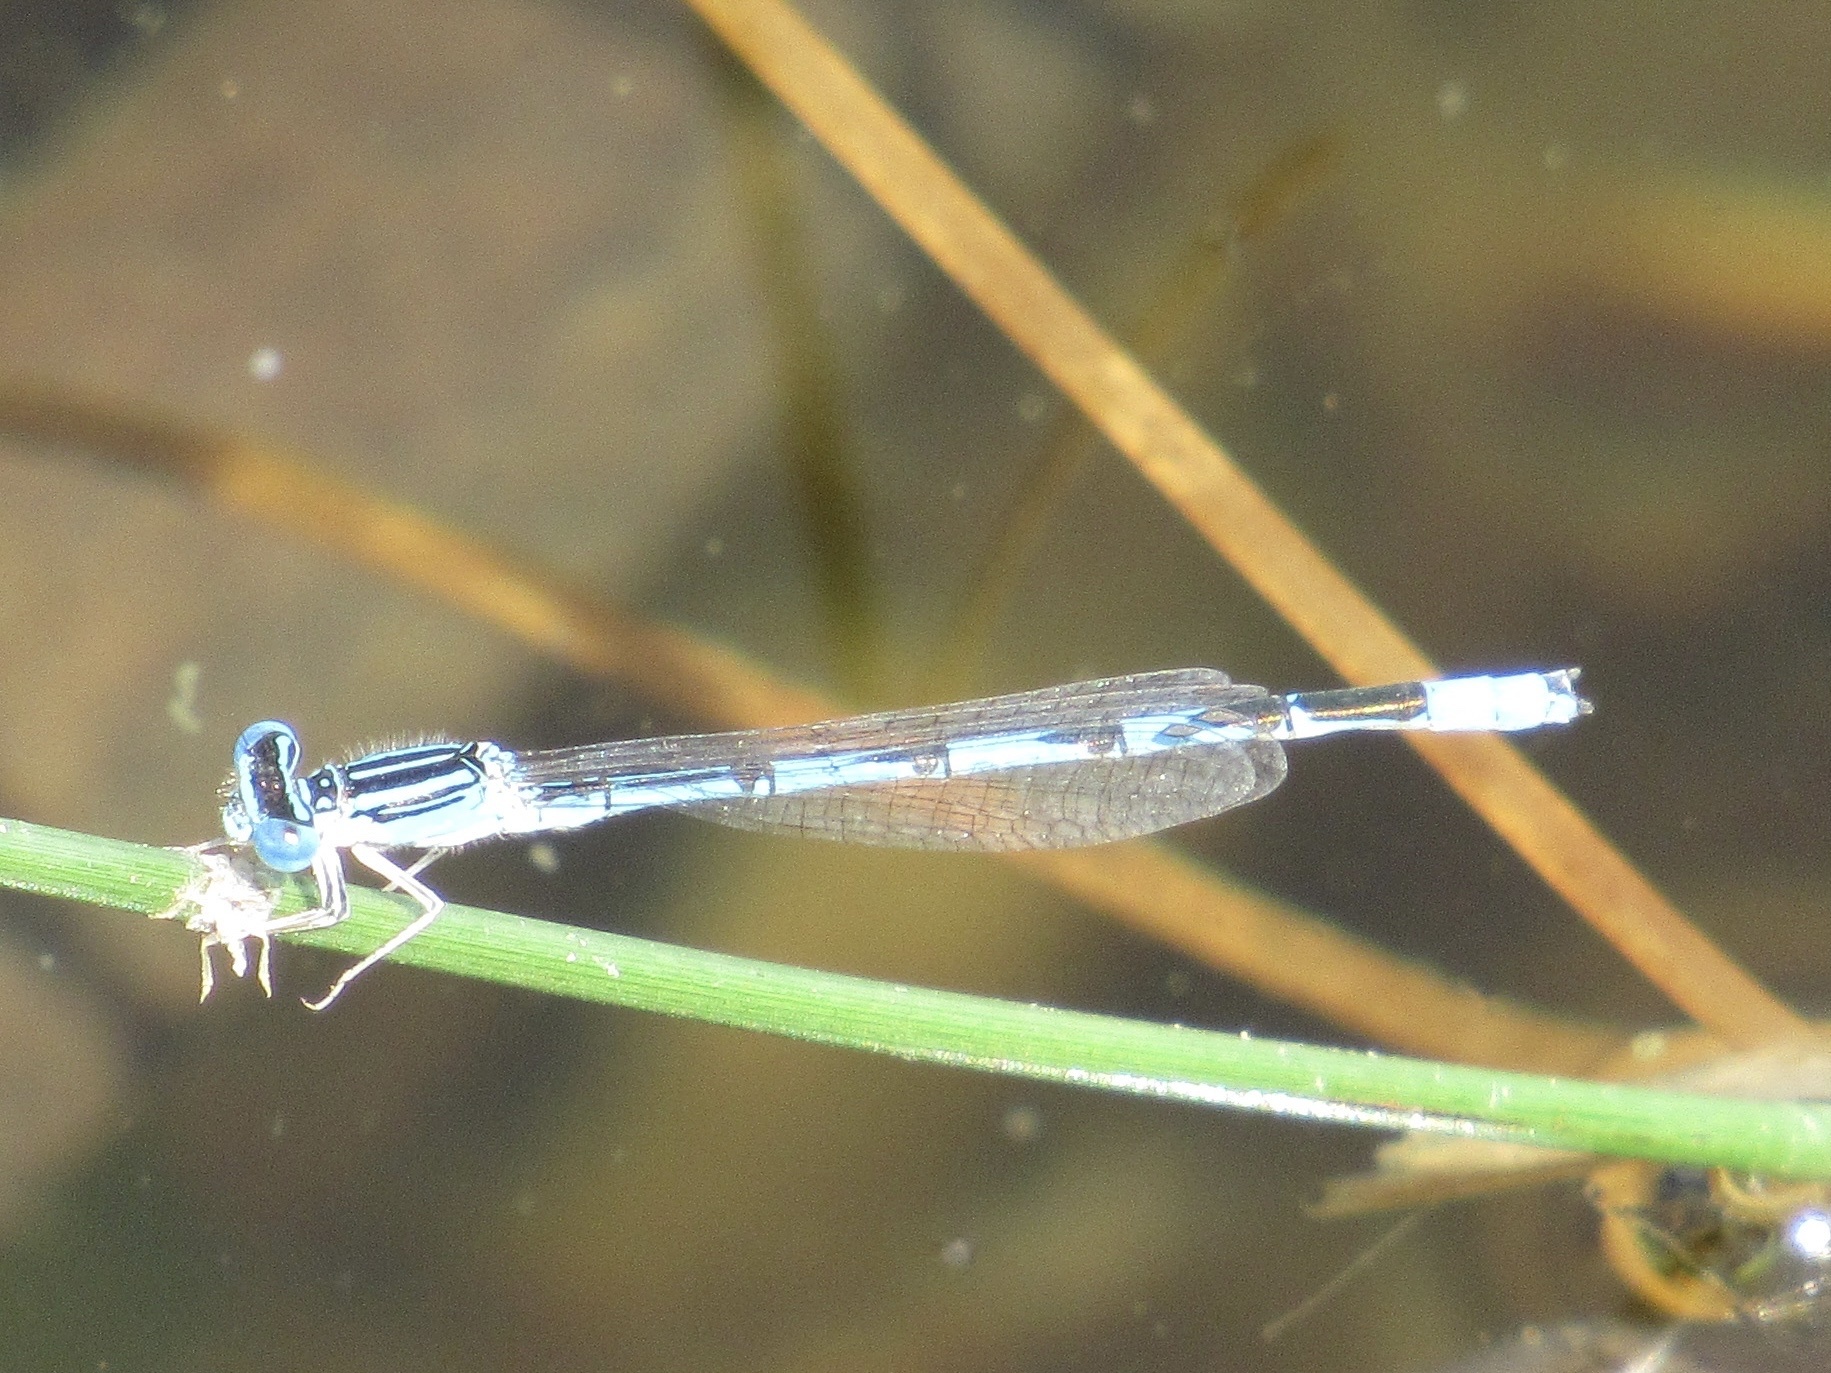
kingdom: Animalia
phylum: Arthropoda
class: Insecta
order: Odonata
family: Coenagrionidae
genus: Enallagma
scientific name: Enallagma basidens
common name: Double-striped bluet
